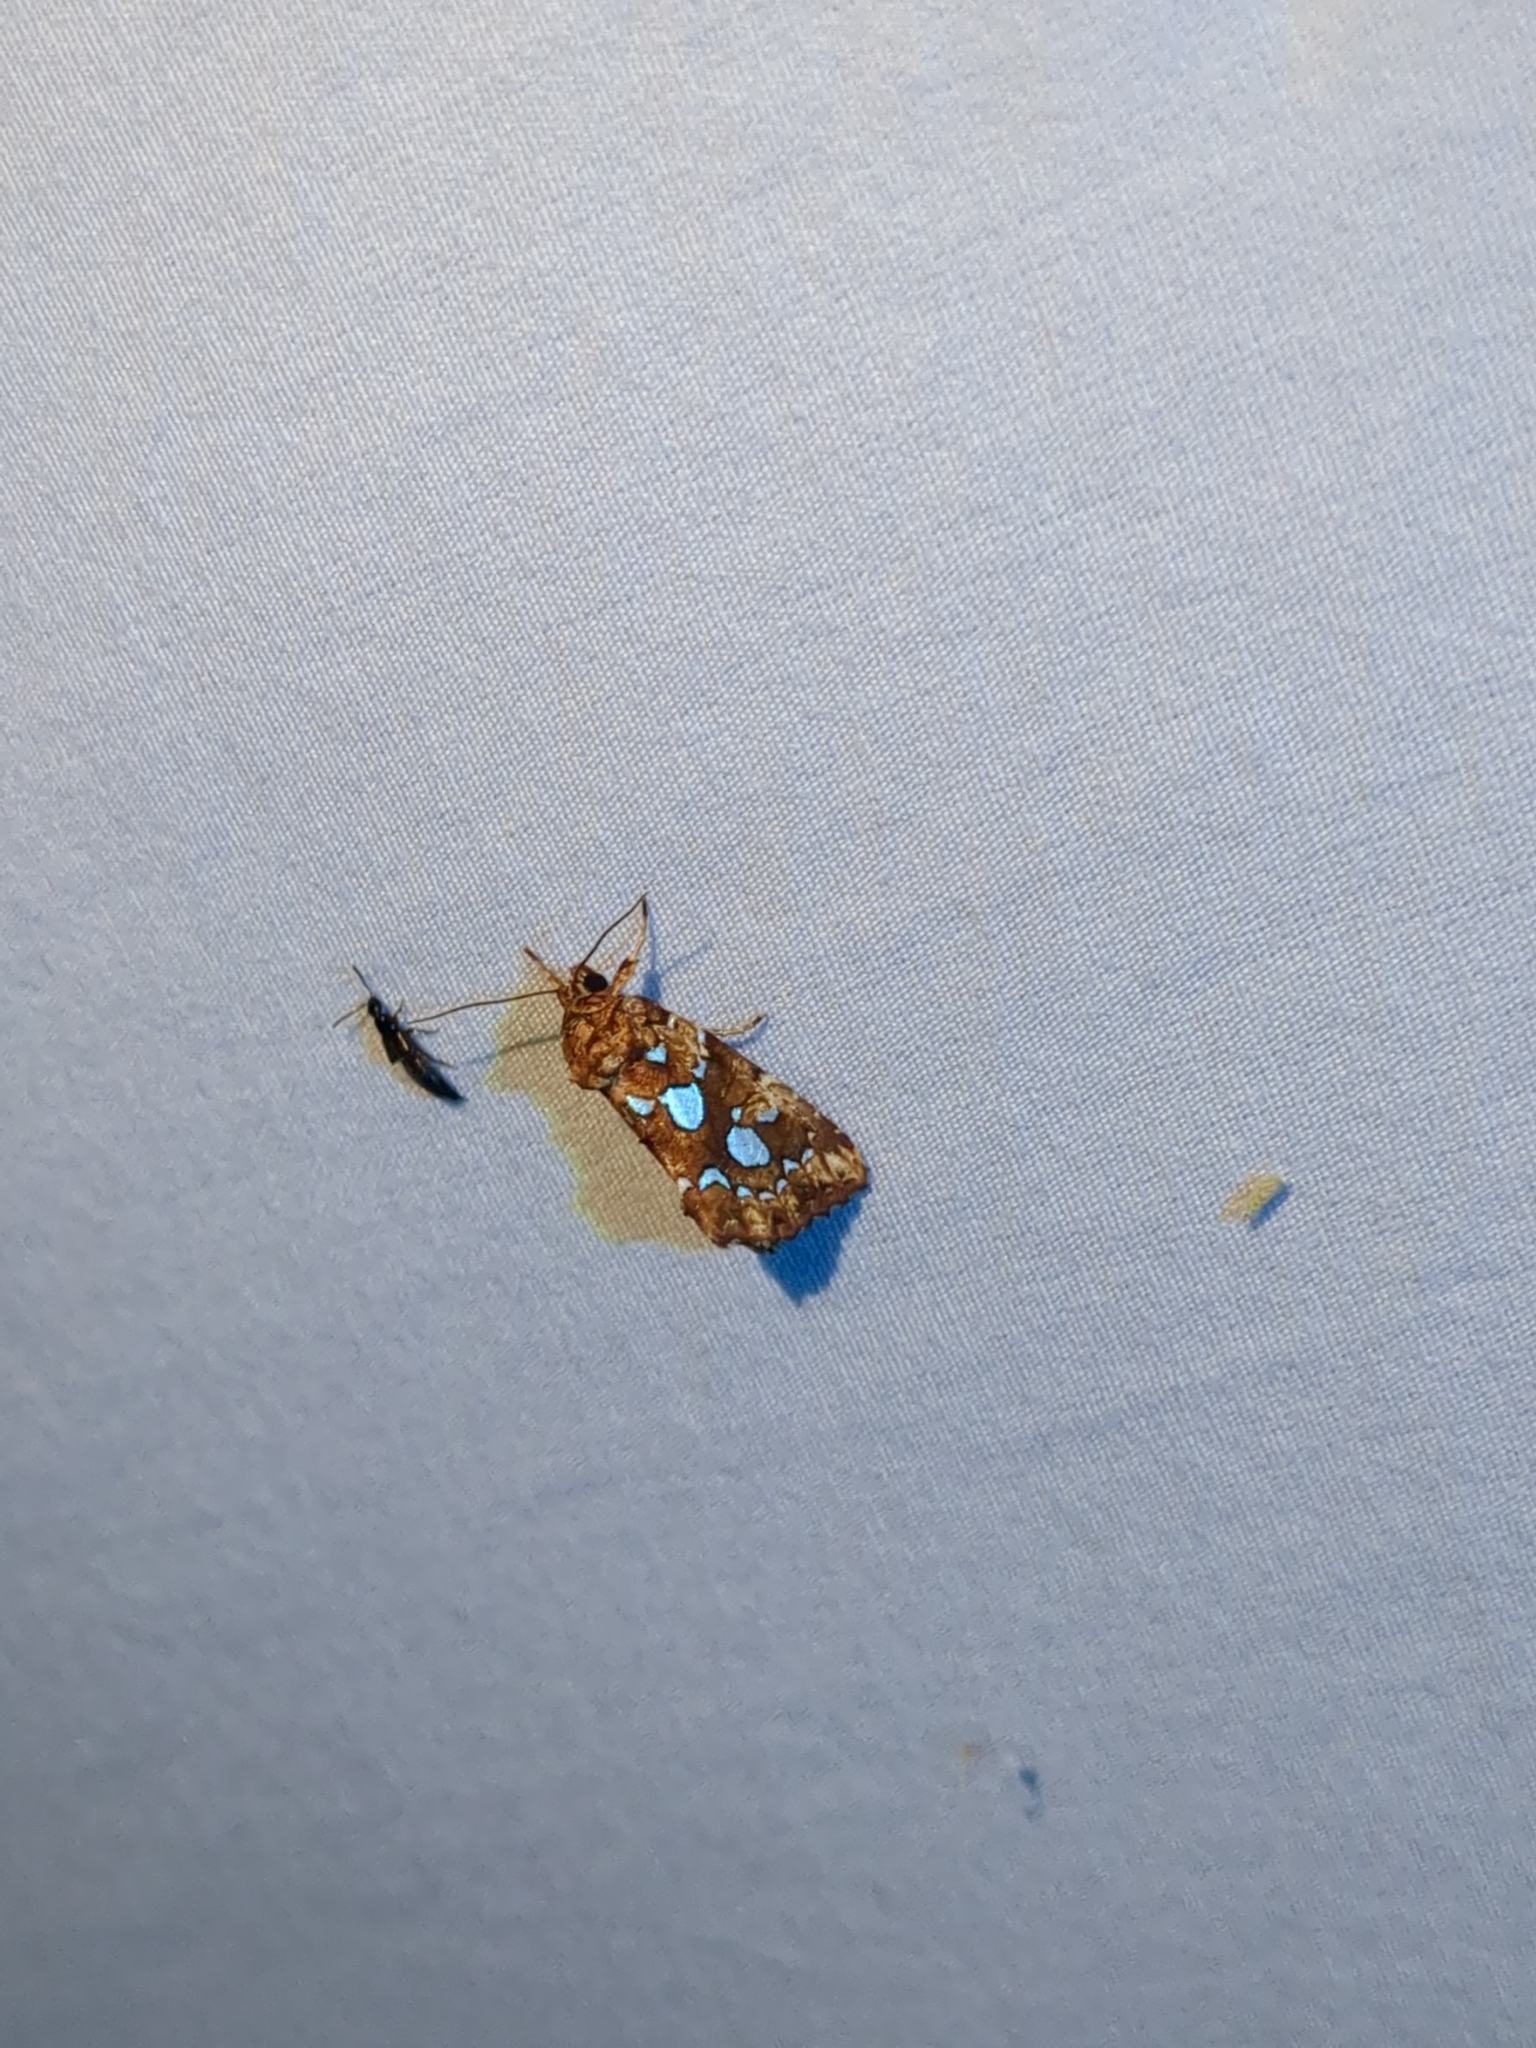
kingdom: Animalia
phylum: Arthropoda
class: Insecta
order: Lepidoptera
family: Noctuidae
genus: Callopistria
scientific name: Callopistria cordata
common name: Silver-spotted fern moth
